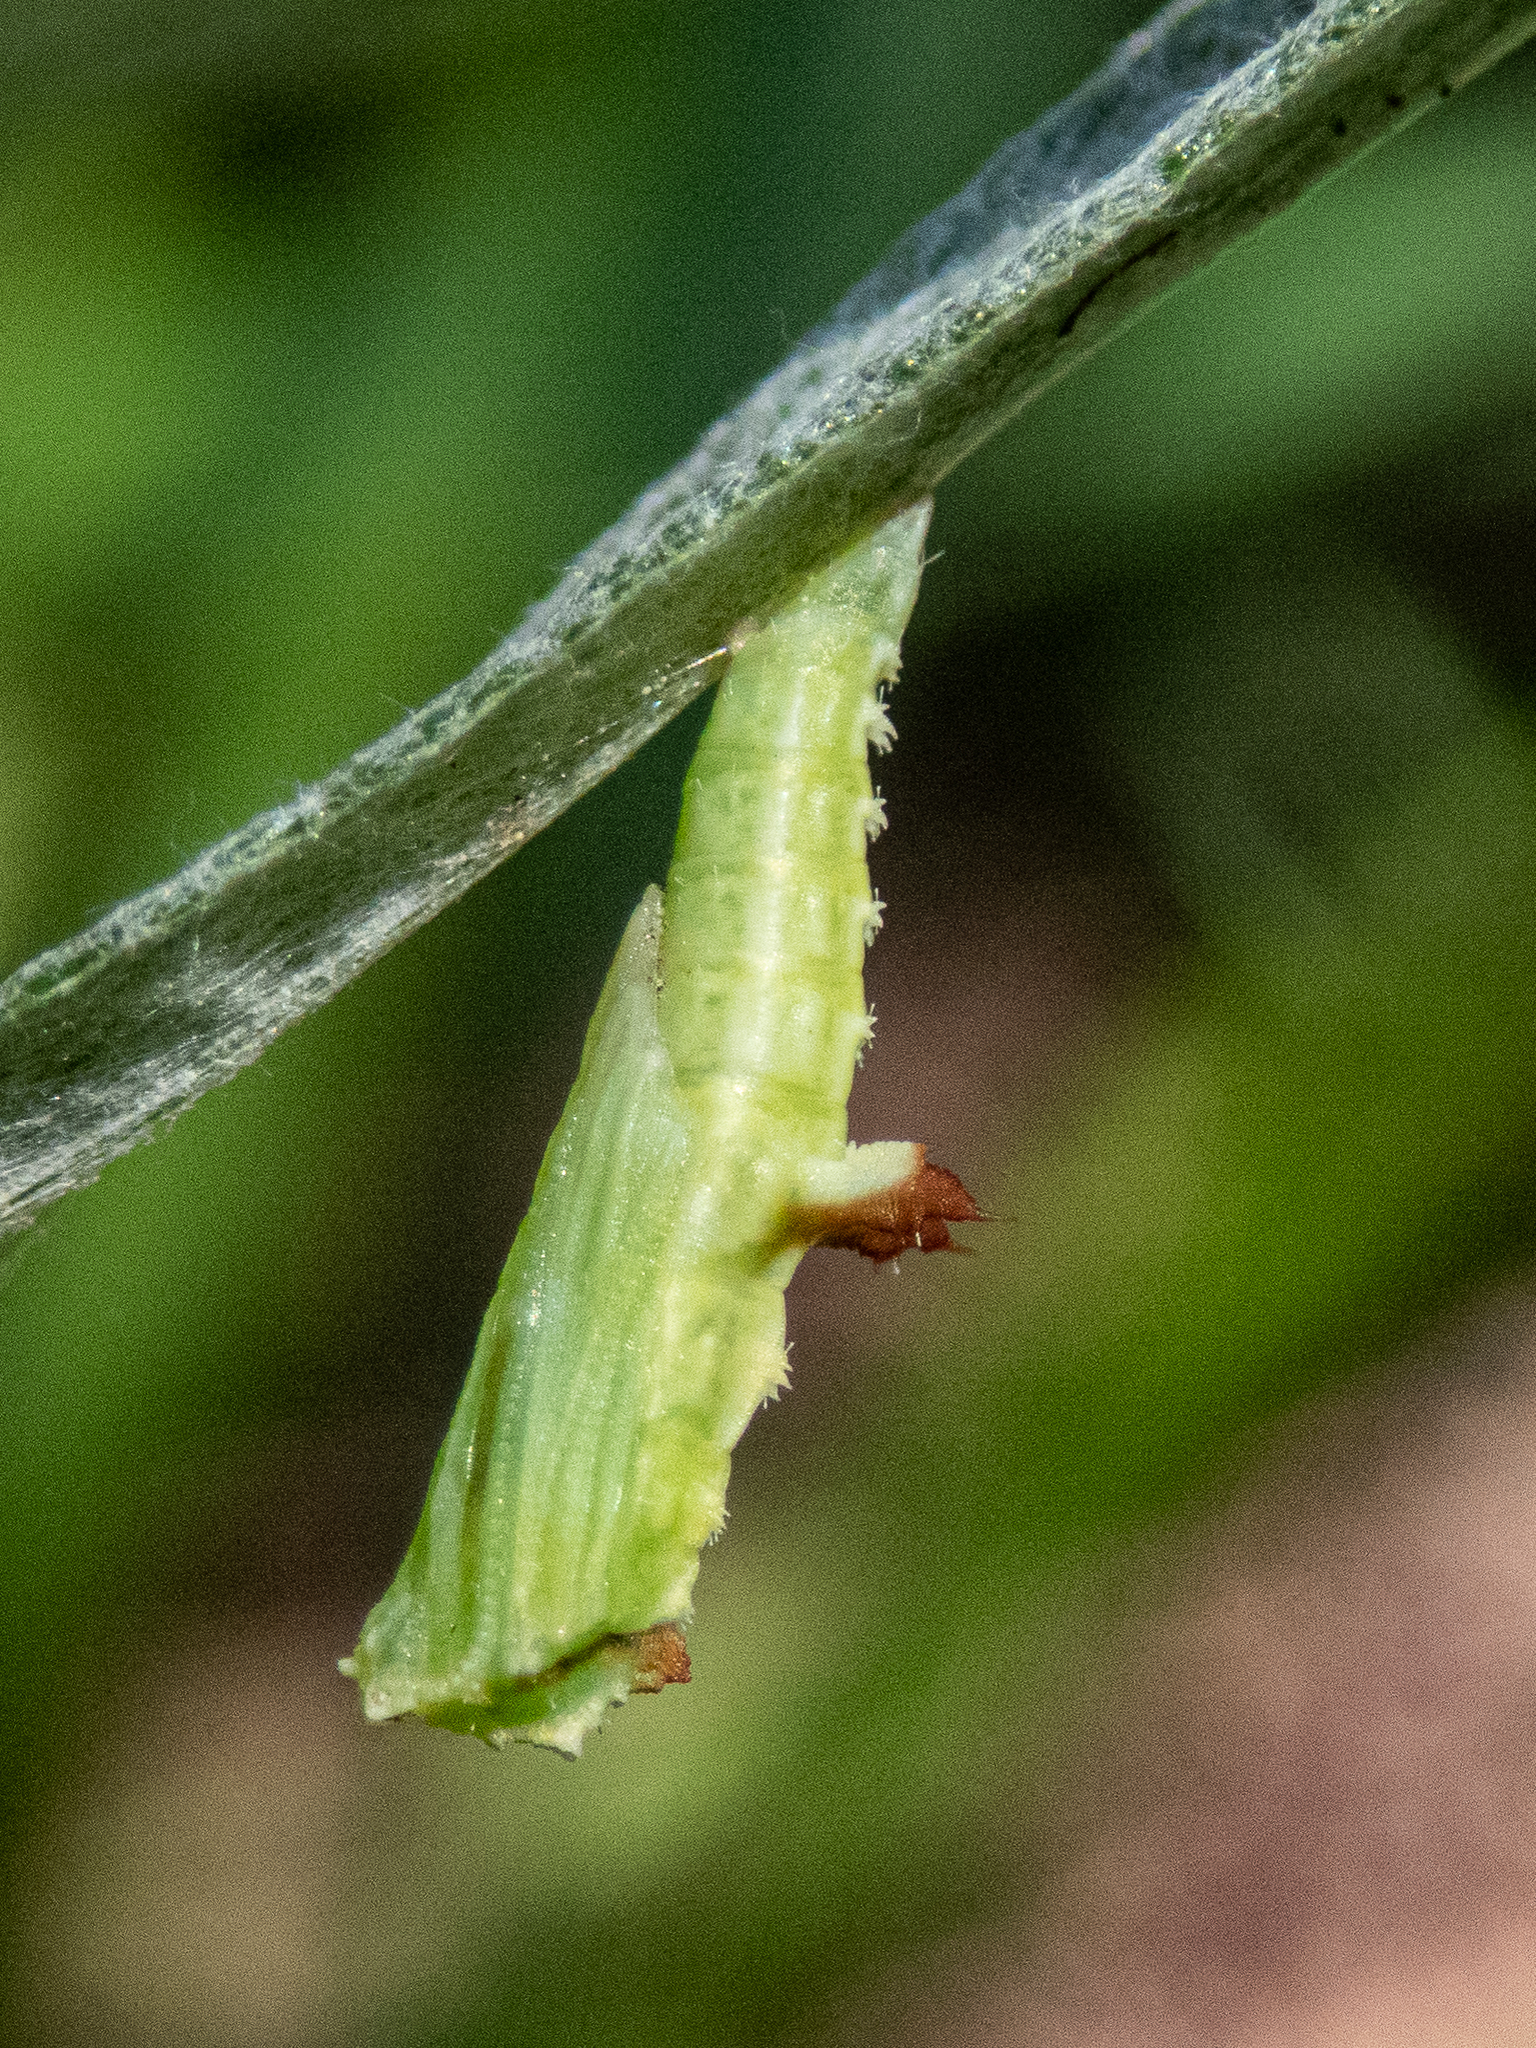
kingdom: Animalia
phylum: Arthropoda
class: Insecta
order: Lepidoptera
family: Pterophoridae
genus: Geina
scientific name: Geina periscelidactylus
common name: Grape plume moth
